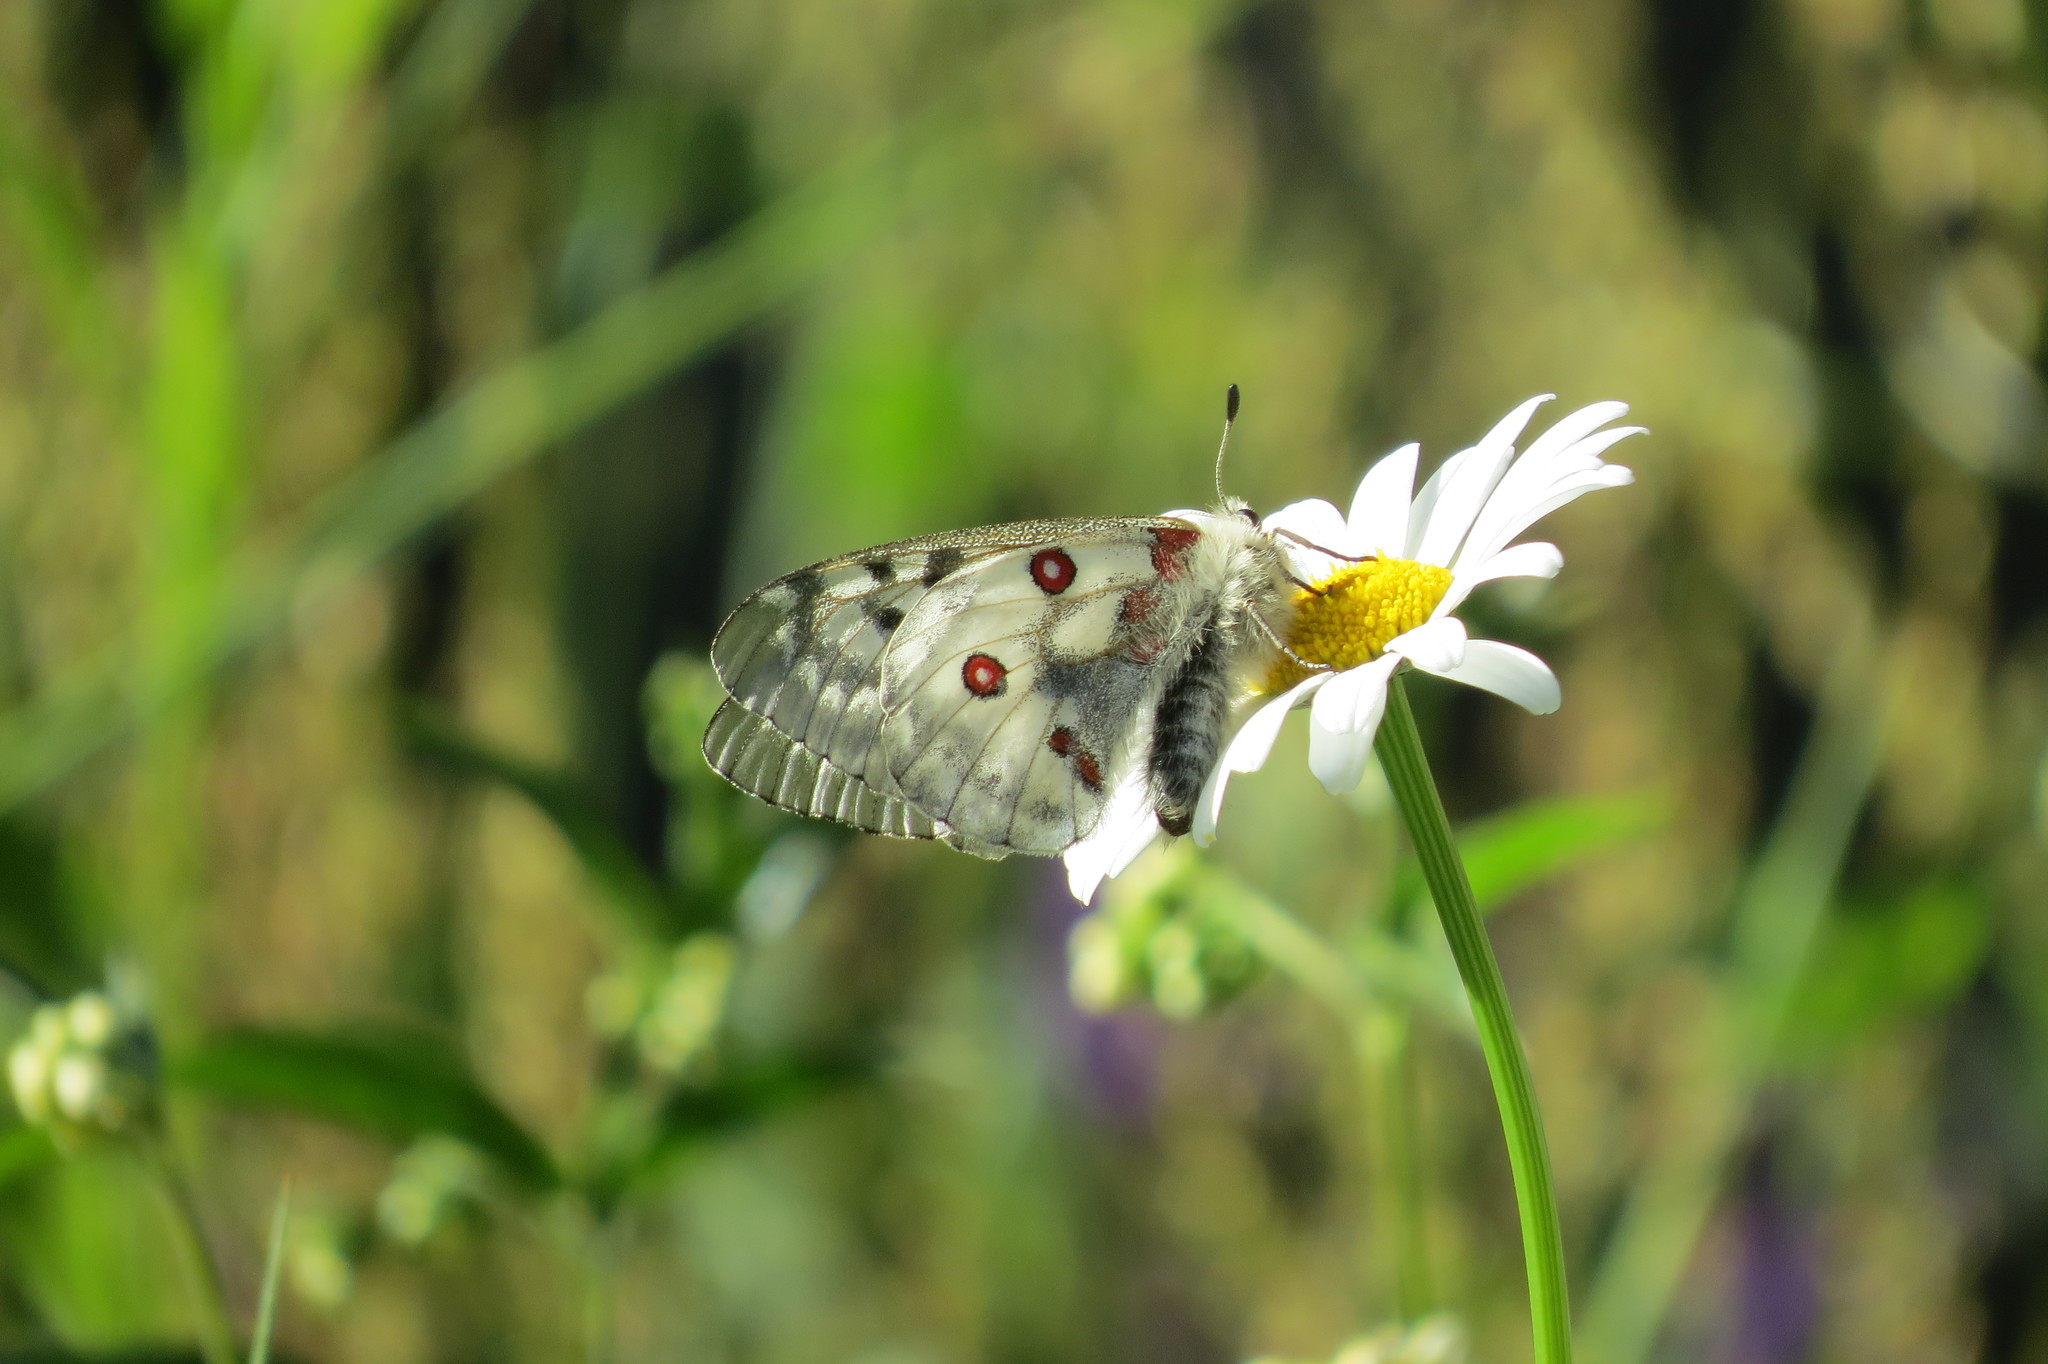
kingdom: Animalia
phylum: Arthropoda
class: Insecta
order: Lepidoptera
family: Papilionidae
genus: Parnassius
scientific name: Parnassius apollo
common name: Apollo
